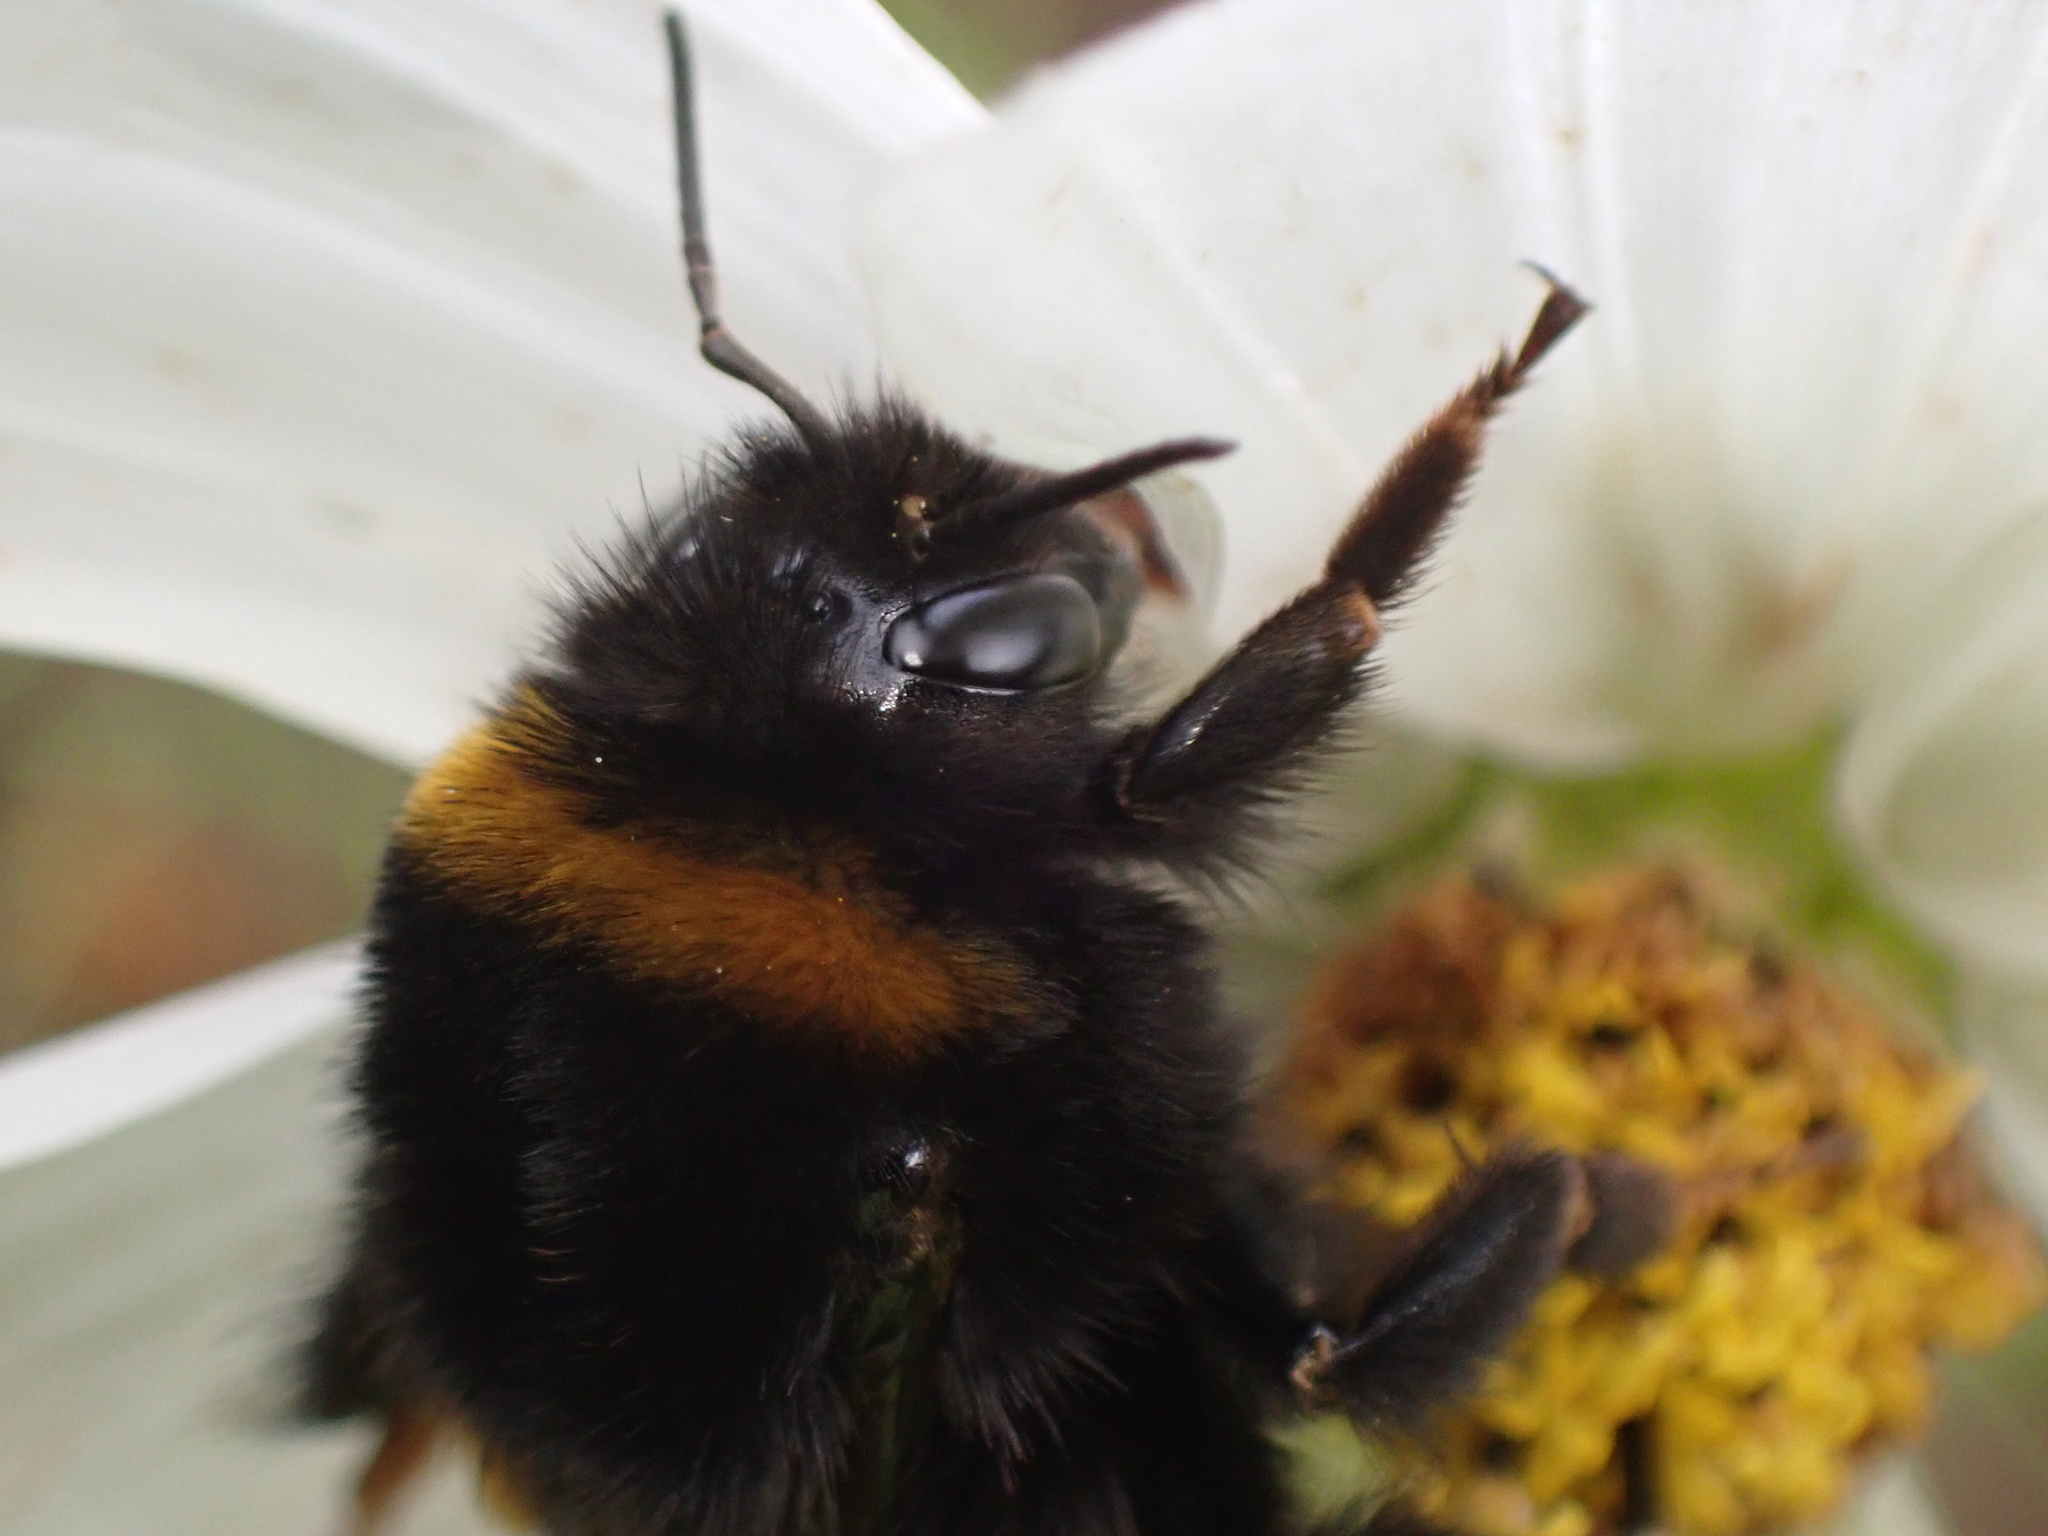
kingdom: Animalia
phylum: Arthropoda
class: Insecta
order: Hymenoptera
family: Apidae
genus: Bombus
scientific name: Bombus terrestris
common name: Buff-tailed bumblebee
